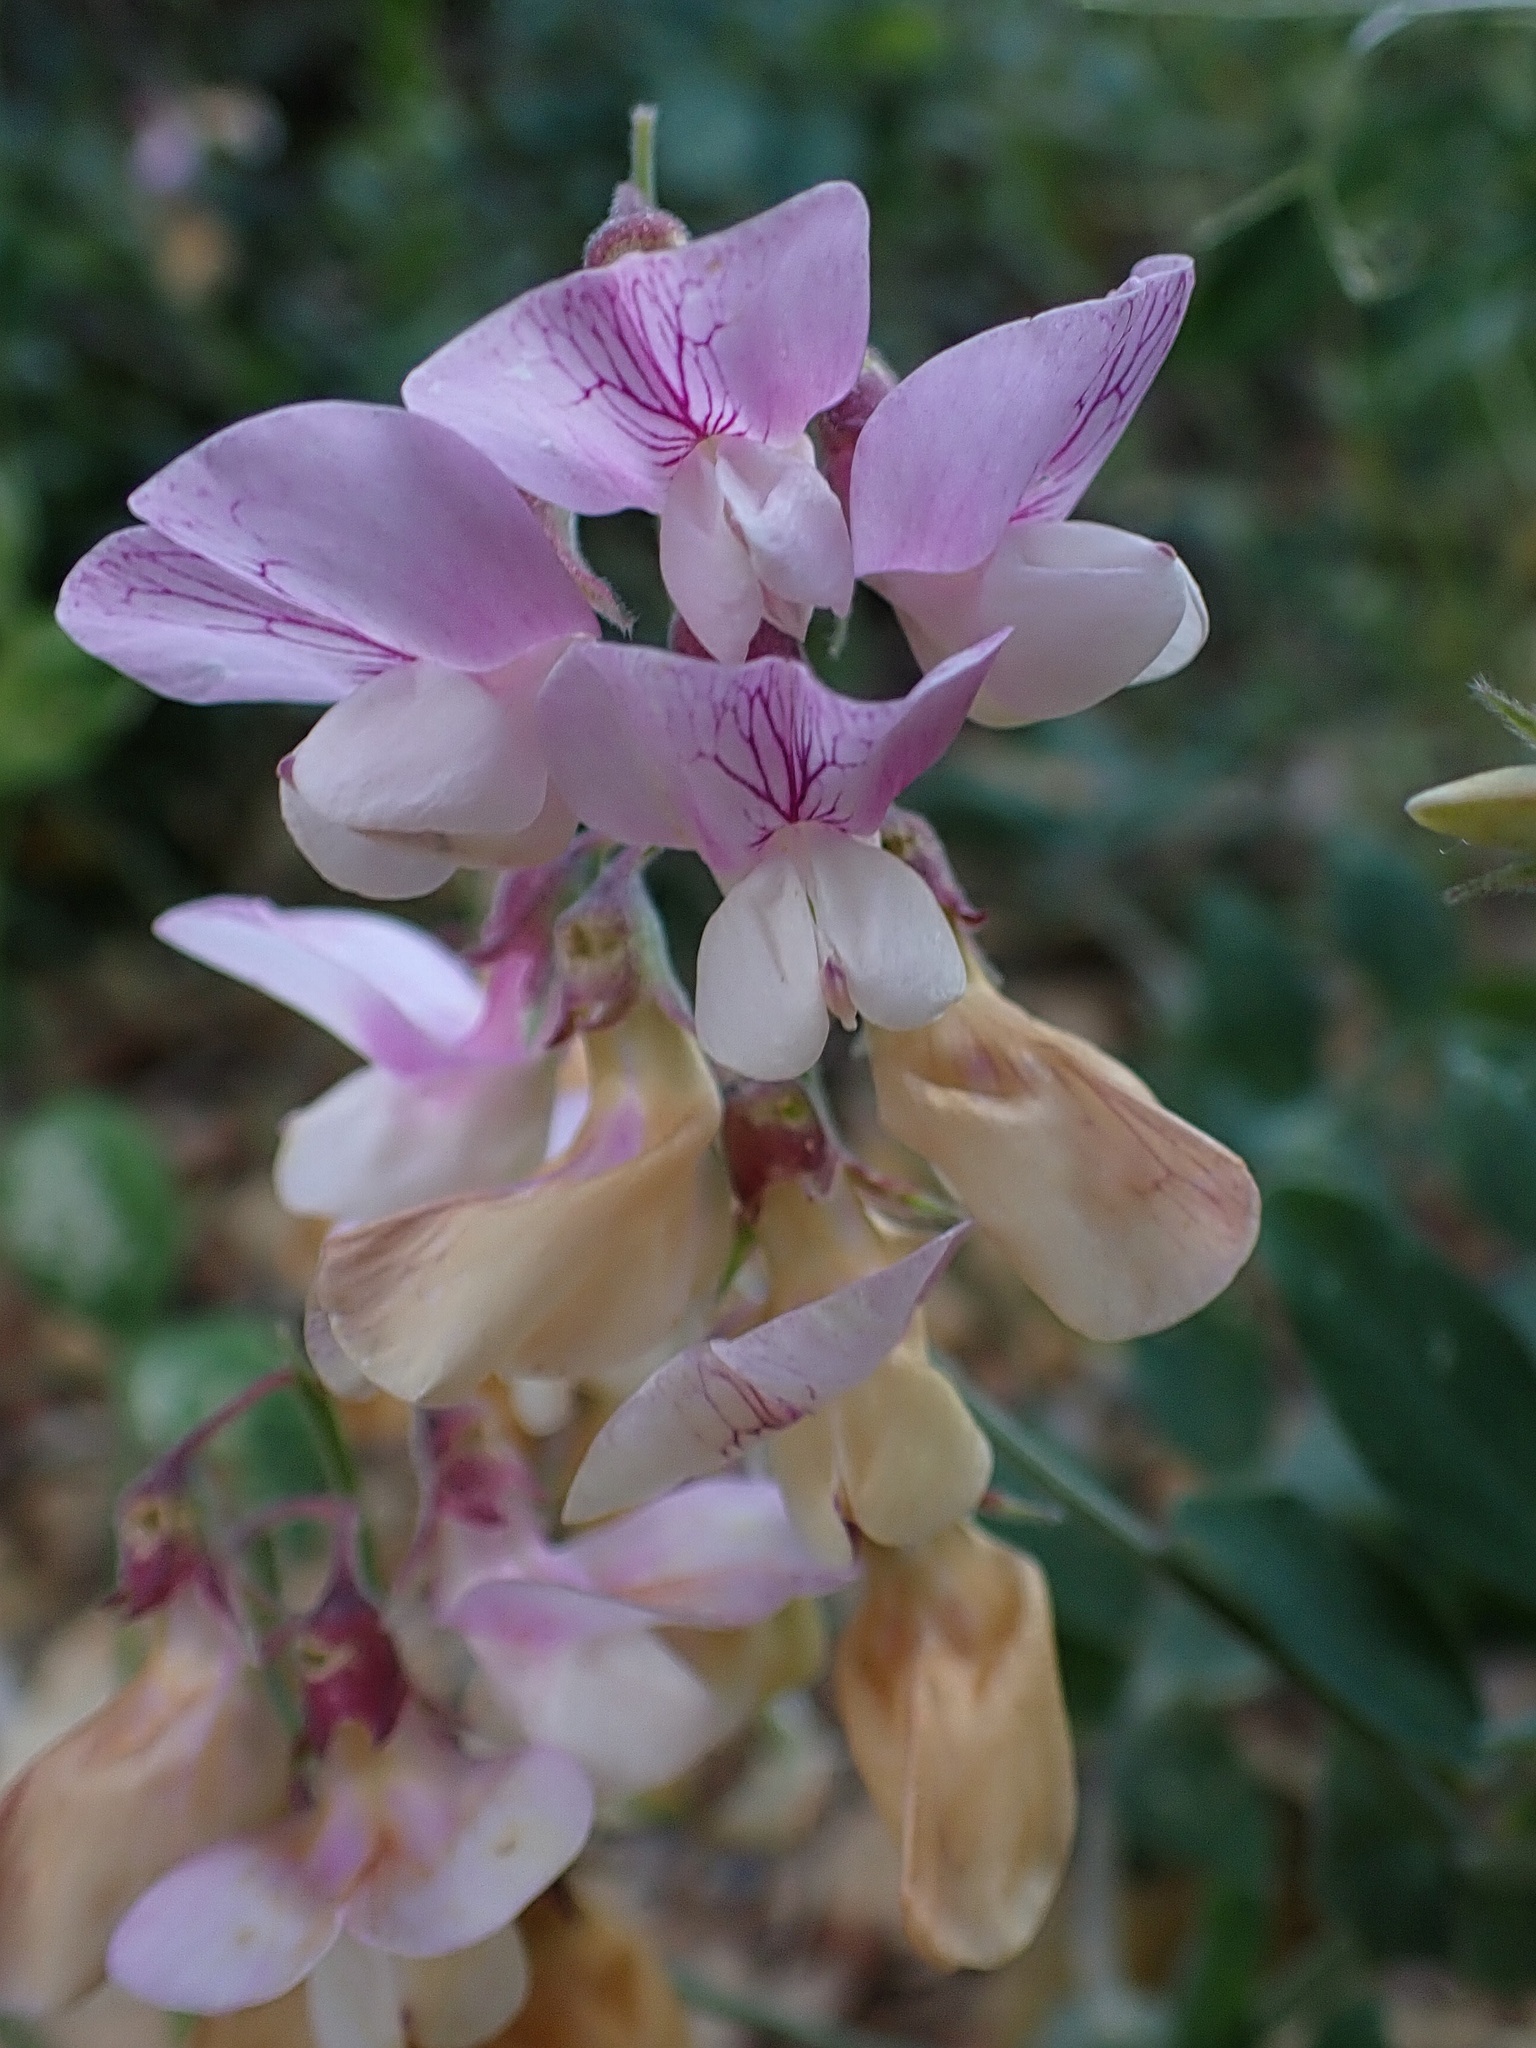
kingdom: Plantae
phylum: Tracheophyta
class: Magnoliopsida
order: Fabales
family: Fabaceae
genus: Lathyrus
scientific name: Lathyrus vestitus
